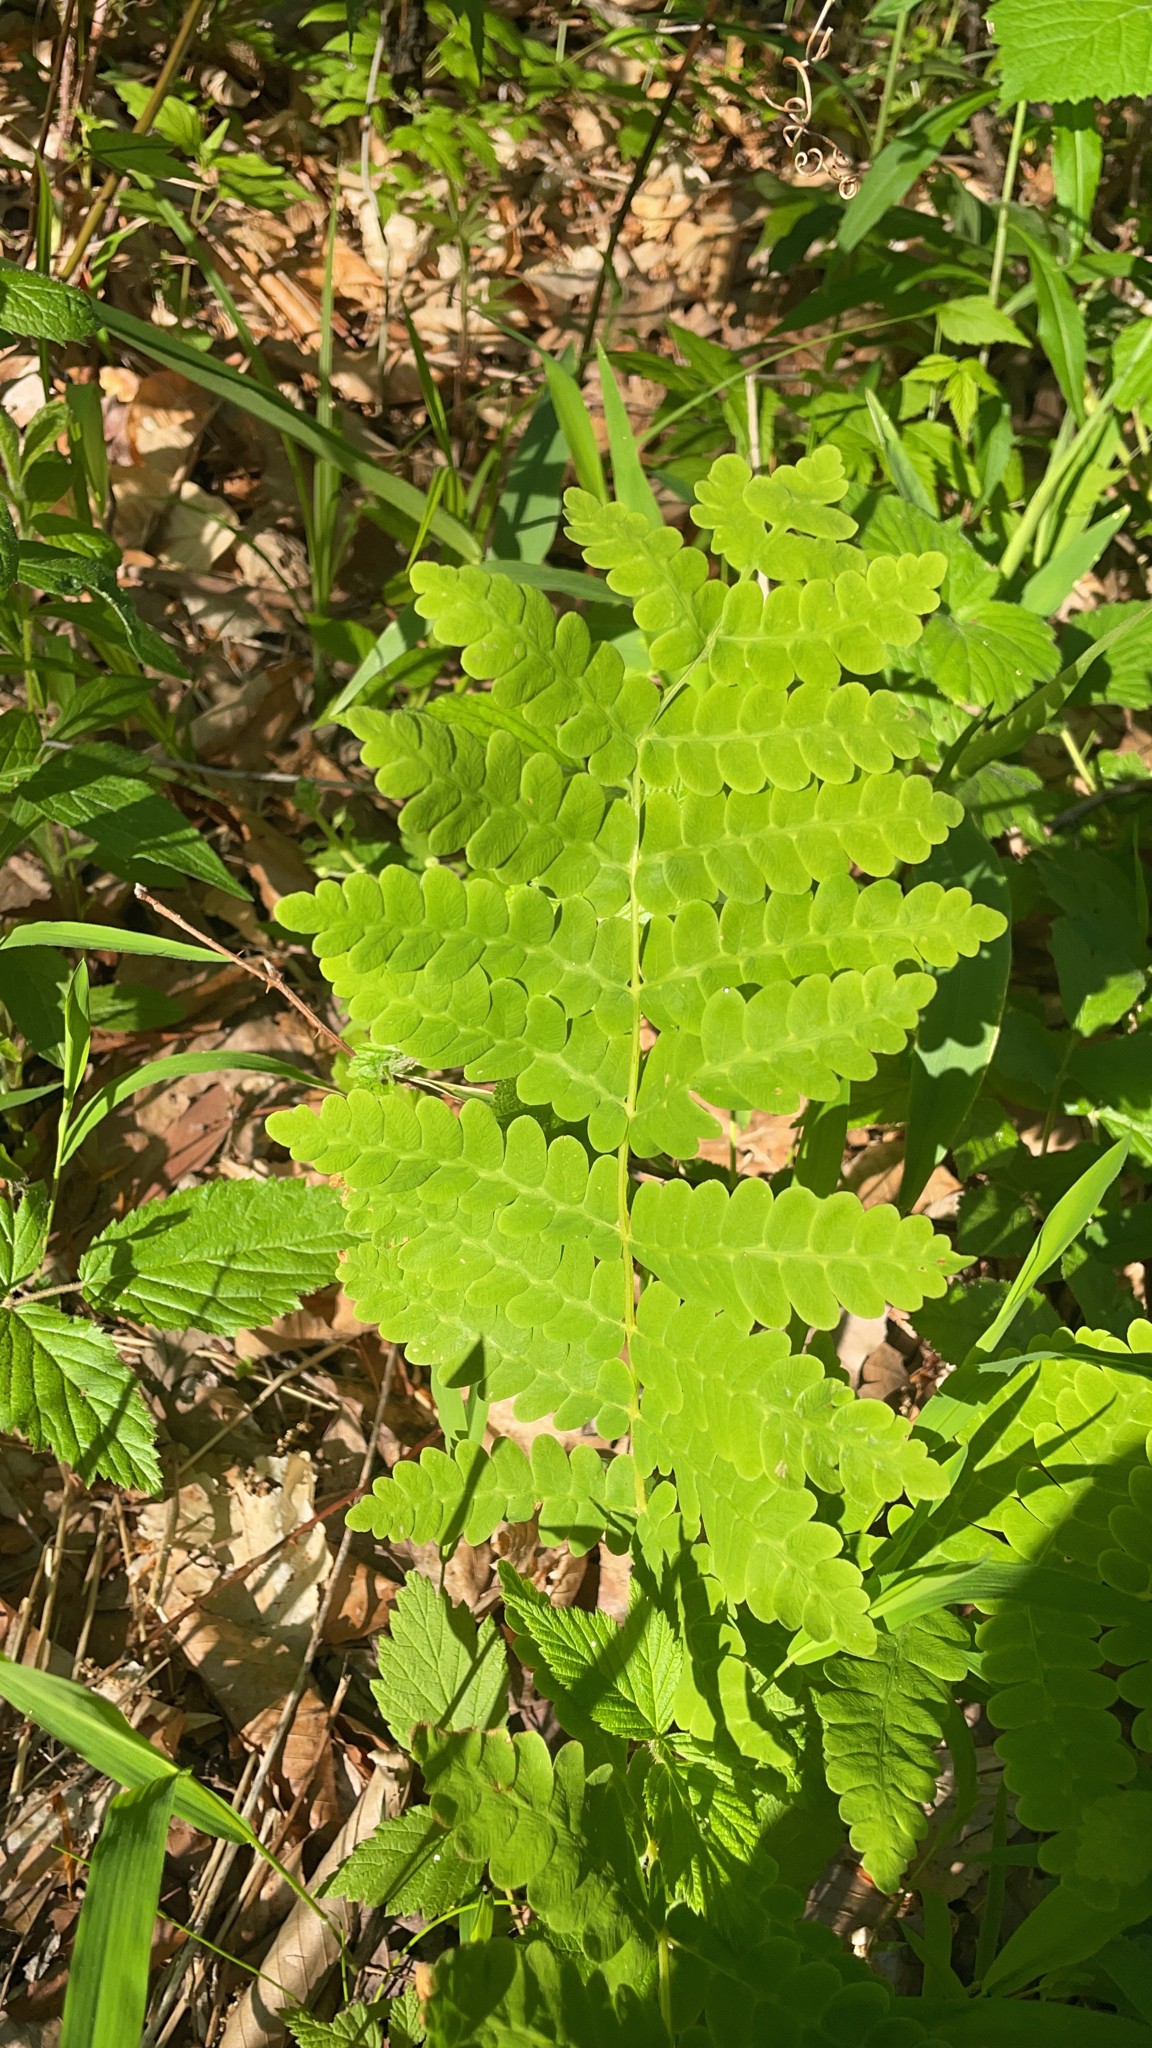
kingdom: Plantae
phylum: Tracheophyta
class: Polypodiopsida
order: Osmundales
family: Osmundaceae
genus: Claytosmunda
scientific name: Claytosmunda claytoniana
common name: Clayton's fern
